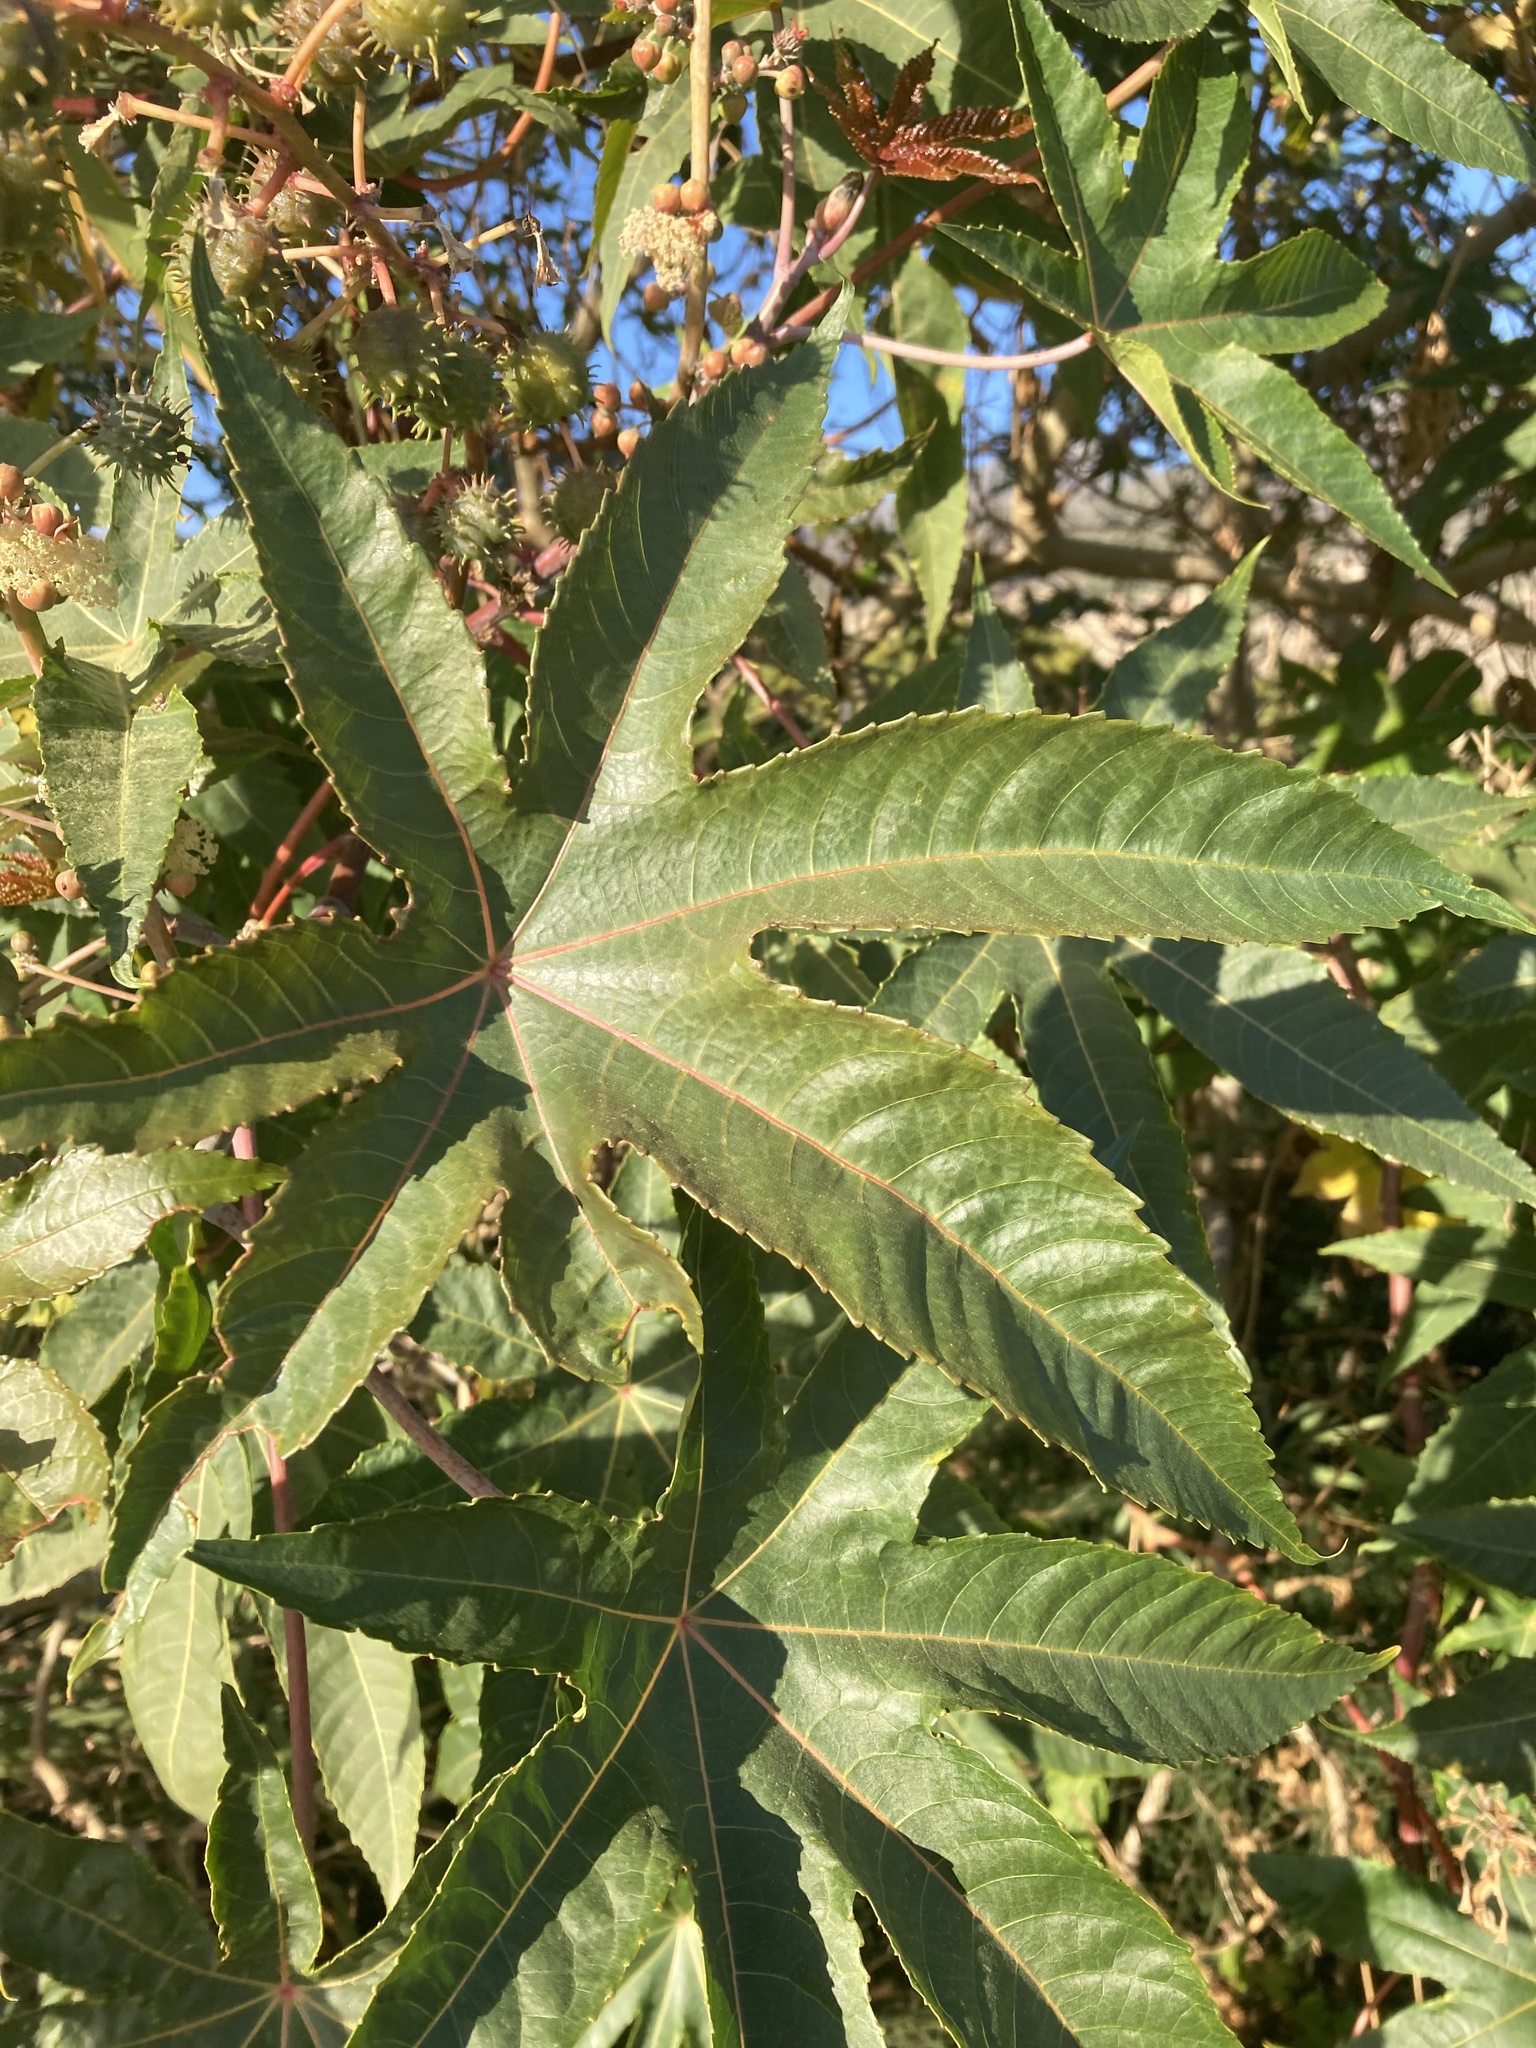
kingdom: Plantae
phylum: Tracheophyta
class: Magnoliopsida
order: Malpighiales
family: Euphorbiaceae
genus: Ricinus
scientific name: Ricinus communis
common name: Castor-oil-plant
